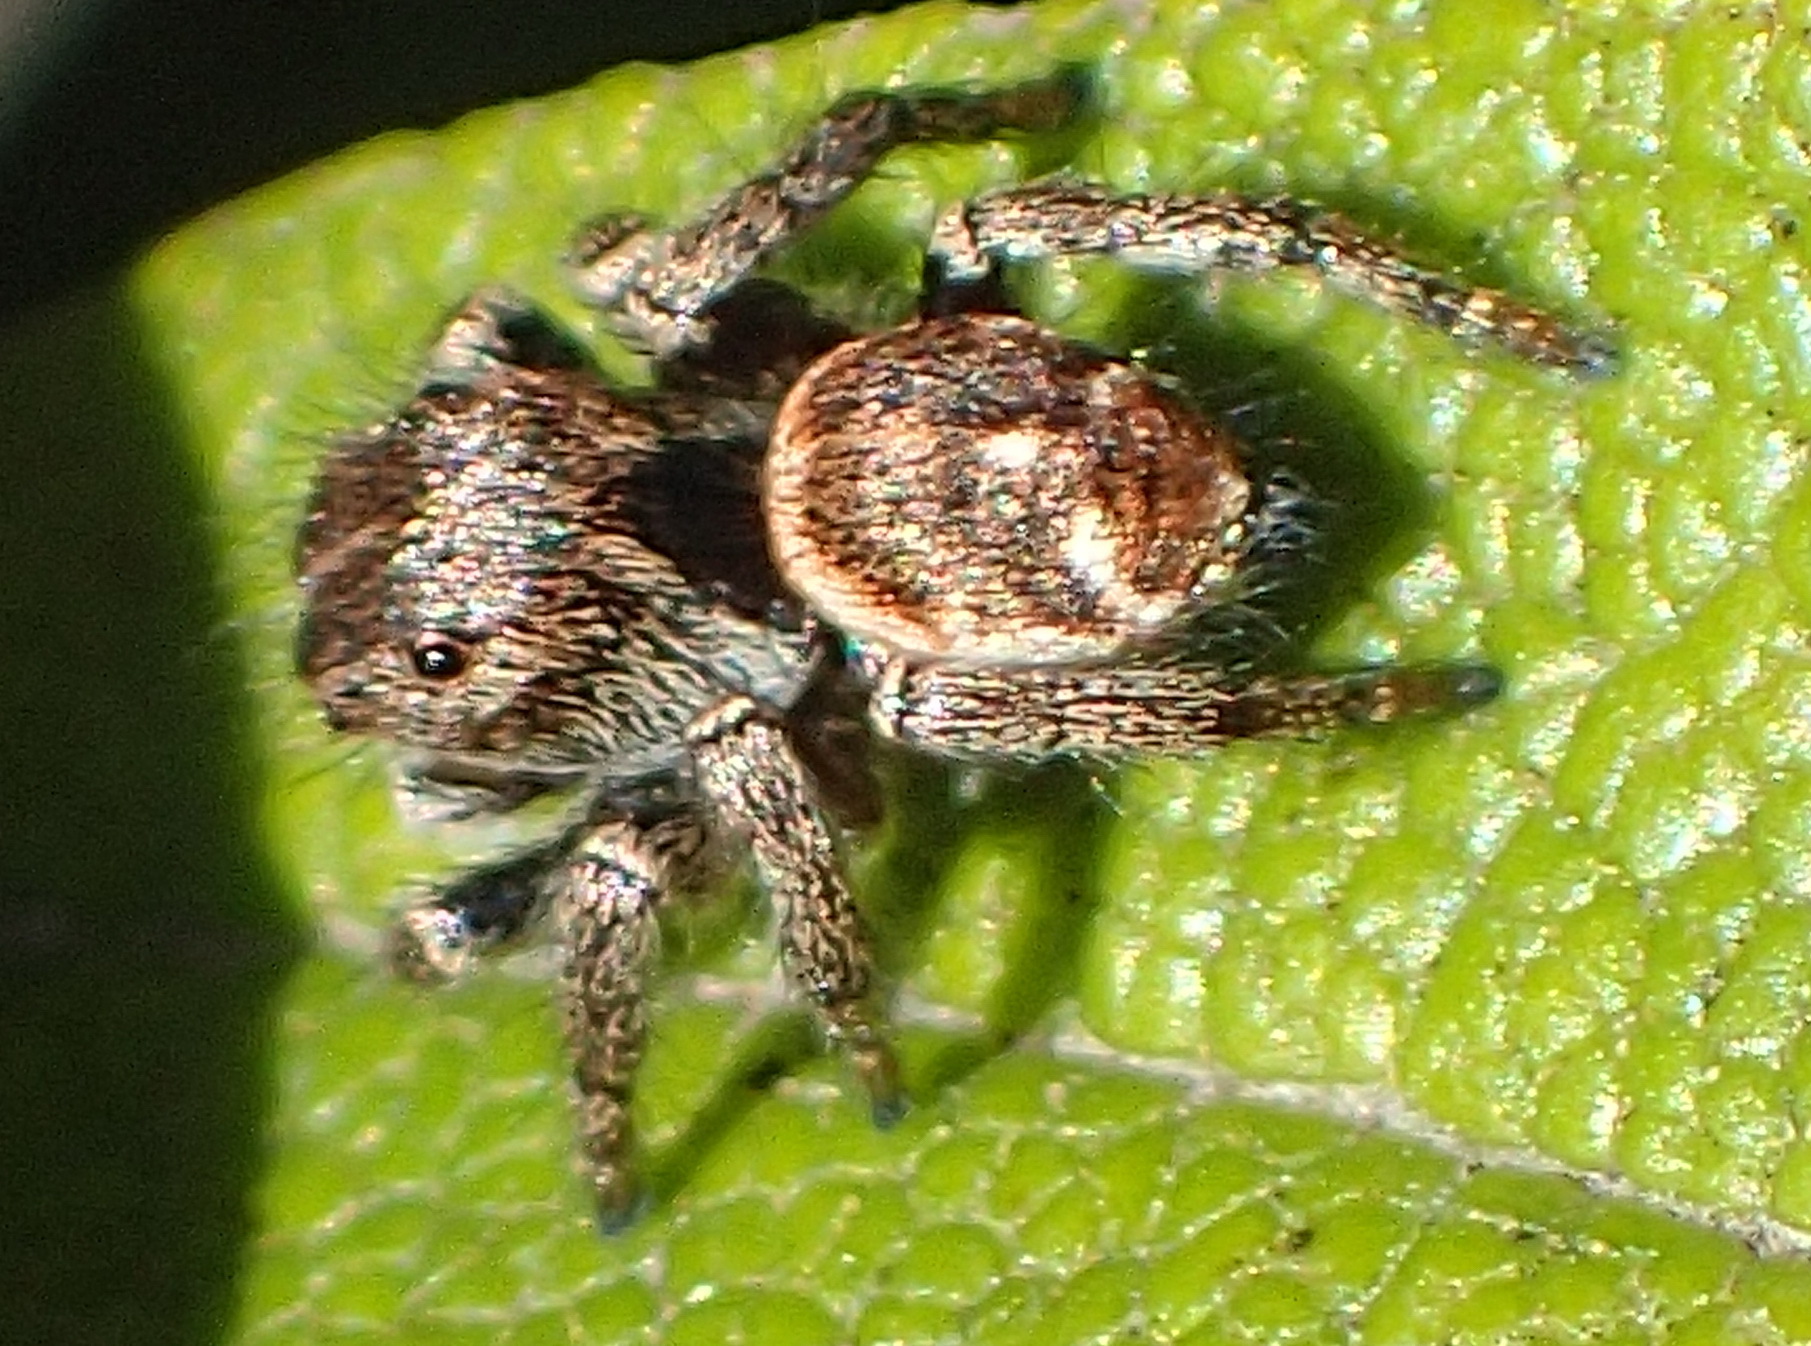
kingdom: Animalia
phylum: Arthropoda
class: Arachnida
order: Araneae
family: Salticidae
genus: Baryphas
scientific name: Baryphas ahenus
